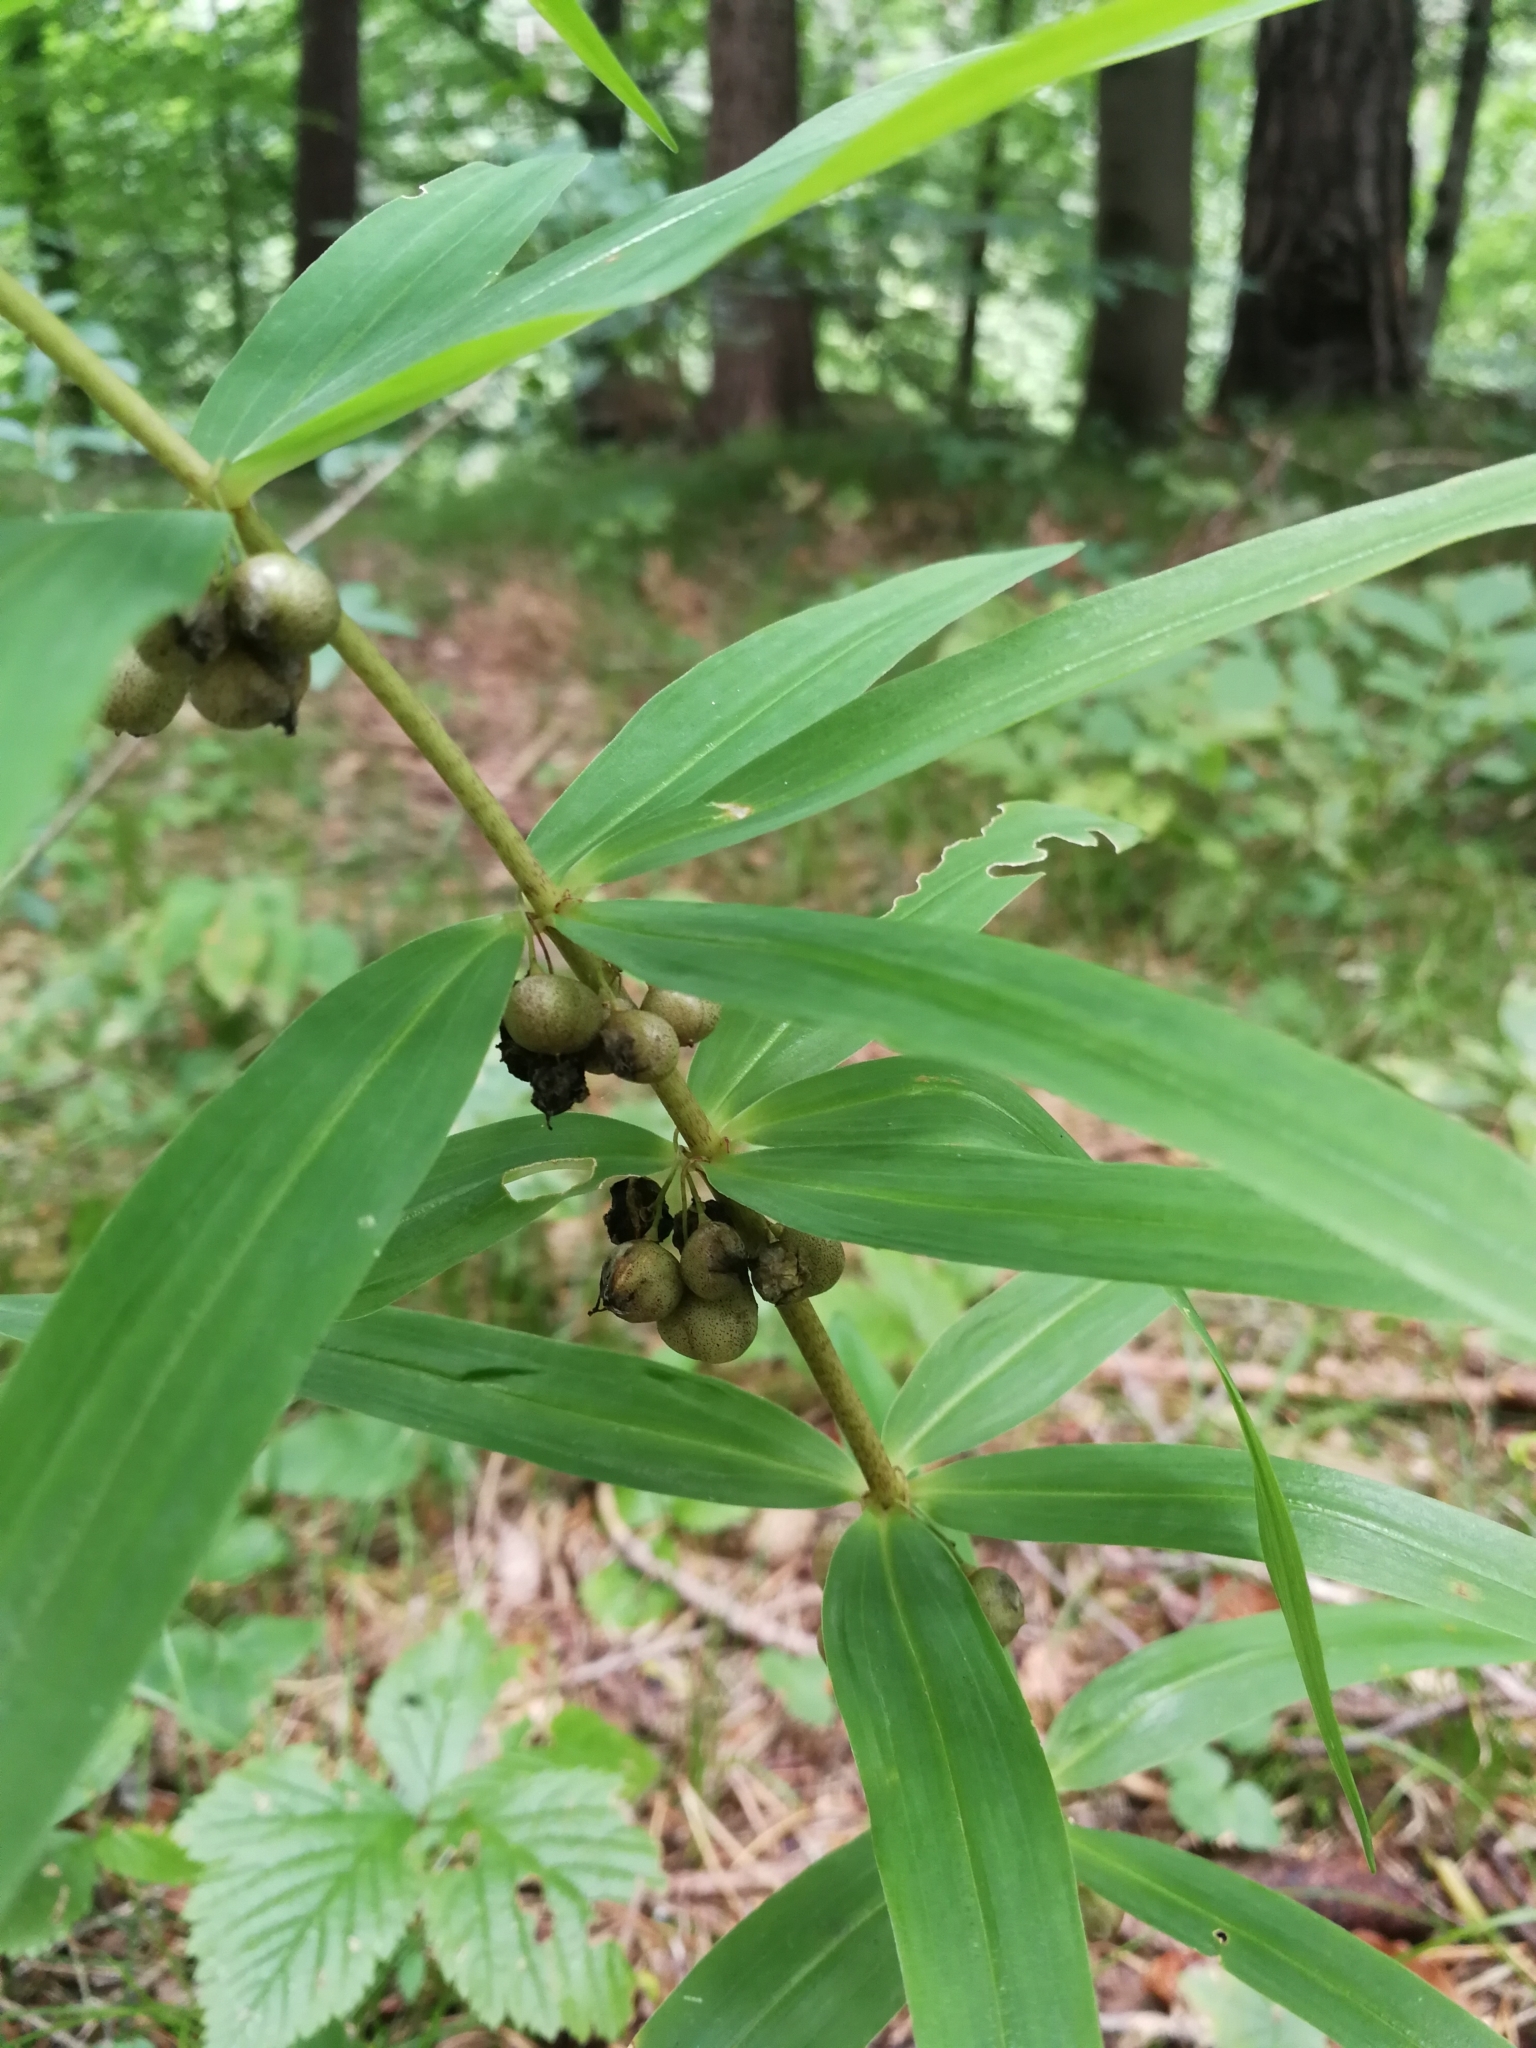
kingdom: Plantae
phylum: Tracheophyta
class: Liliopsida
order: Asparagales
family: Asparagaceae
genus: Polygonatum
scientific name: Polygonatum verticillatum
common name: Whorled solomon's-seal
